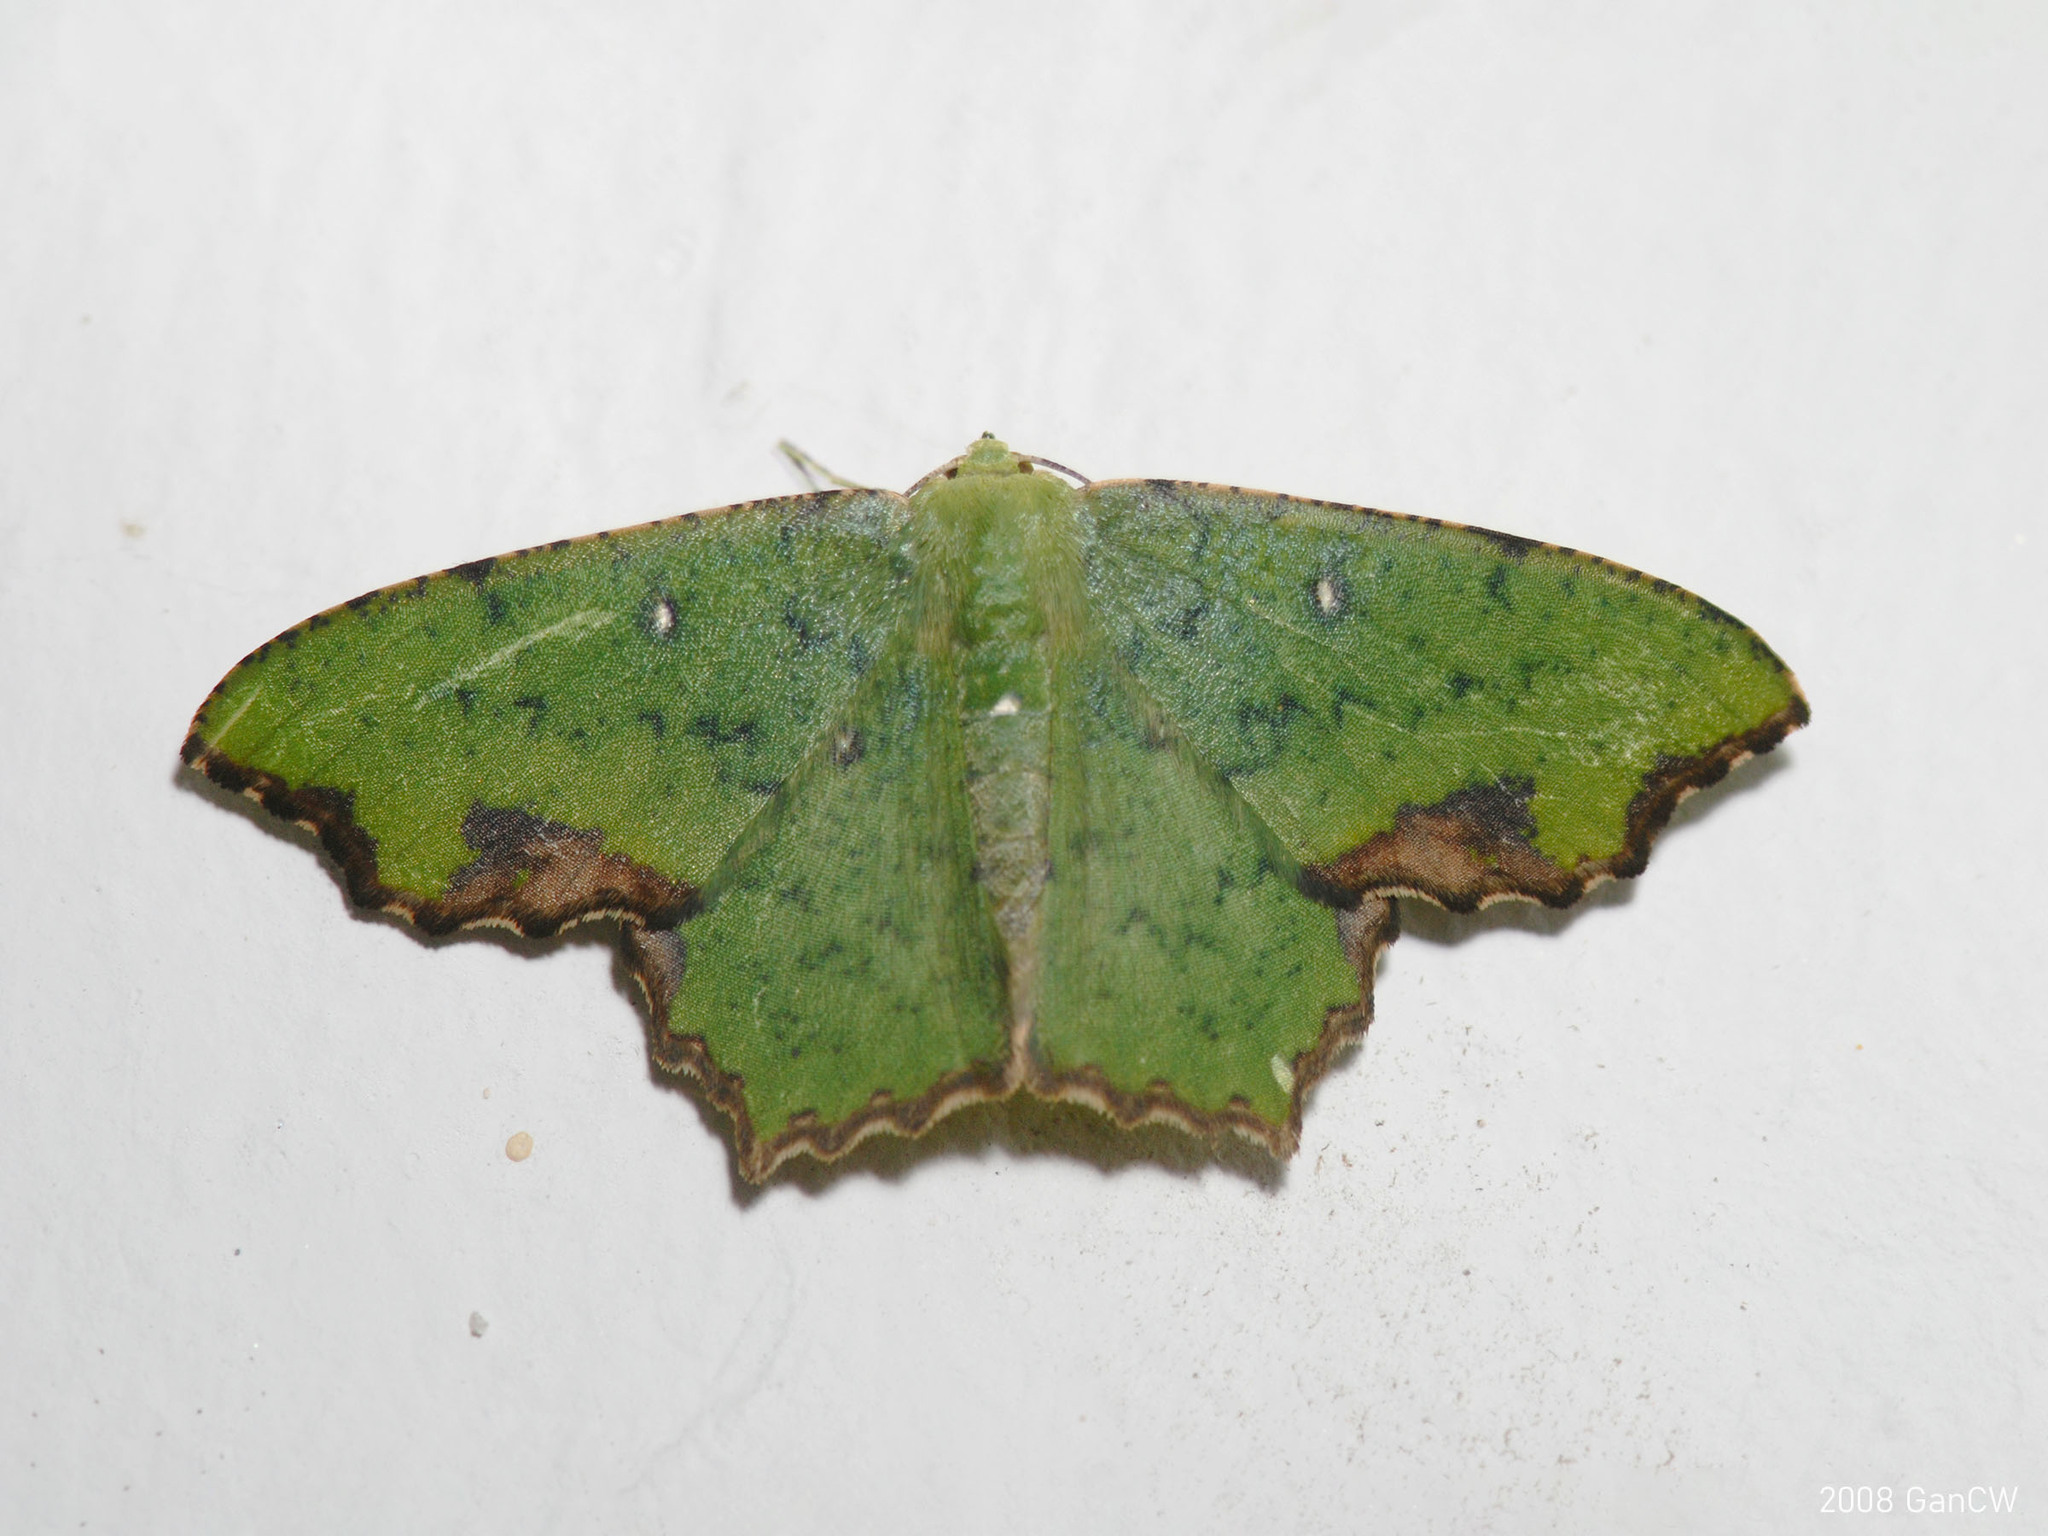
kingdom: Animalia
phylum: Arthropoda
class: Insecta
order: Lepidoptera
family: Geometridae
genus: Dooabia
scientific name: Dooabia puncticostata
